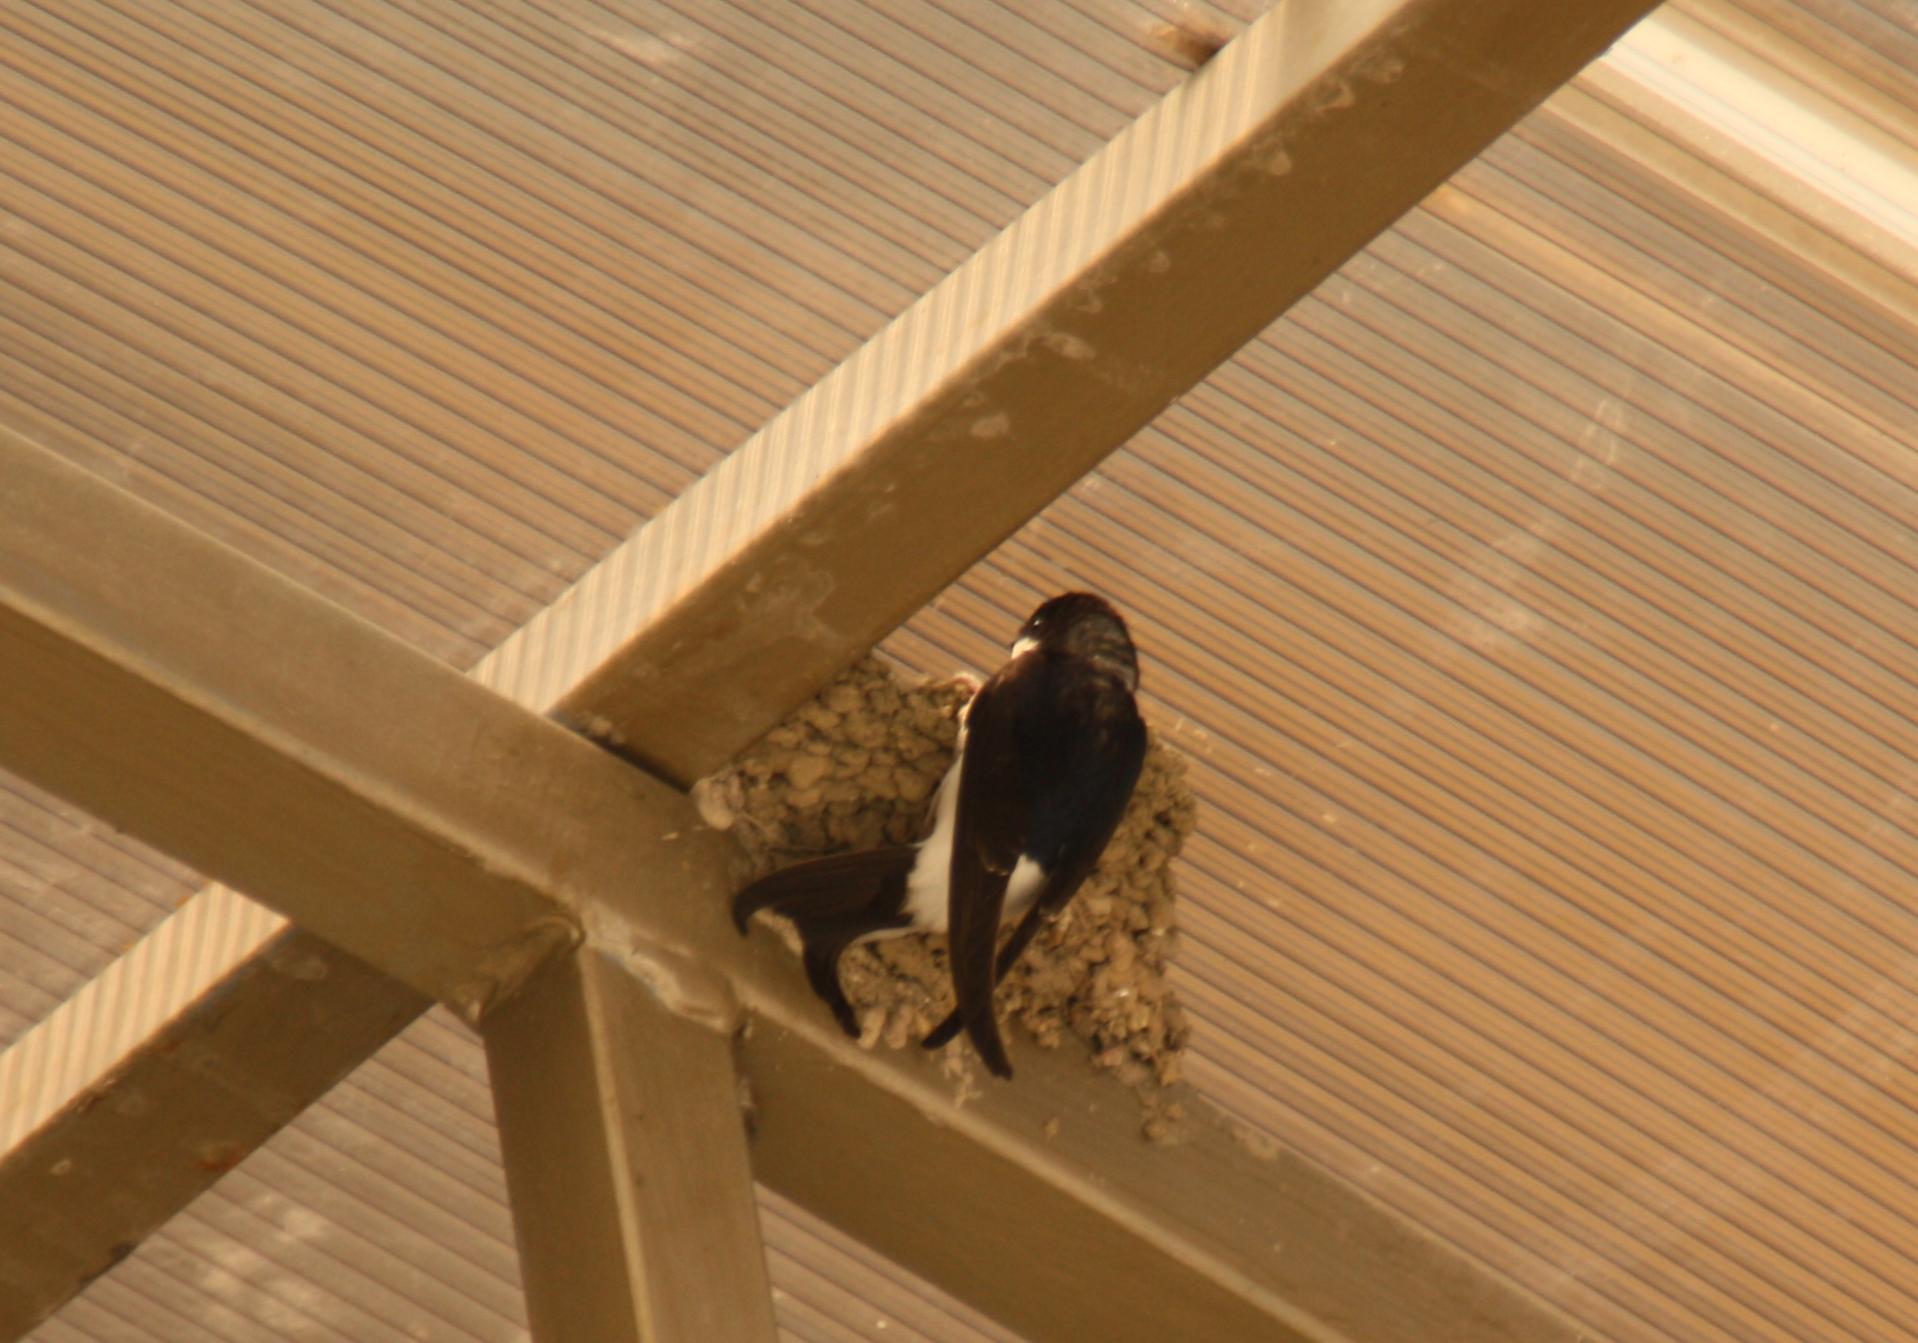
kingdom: Animalia
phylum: Chordata
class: Aves
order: Passeriformes
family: Hirundinidae
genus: Delichon
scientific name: Delichon urbicum
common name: Common house martin
